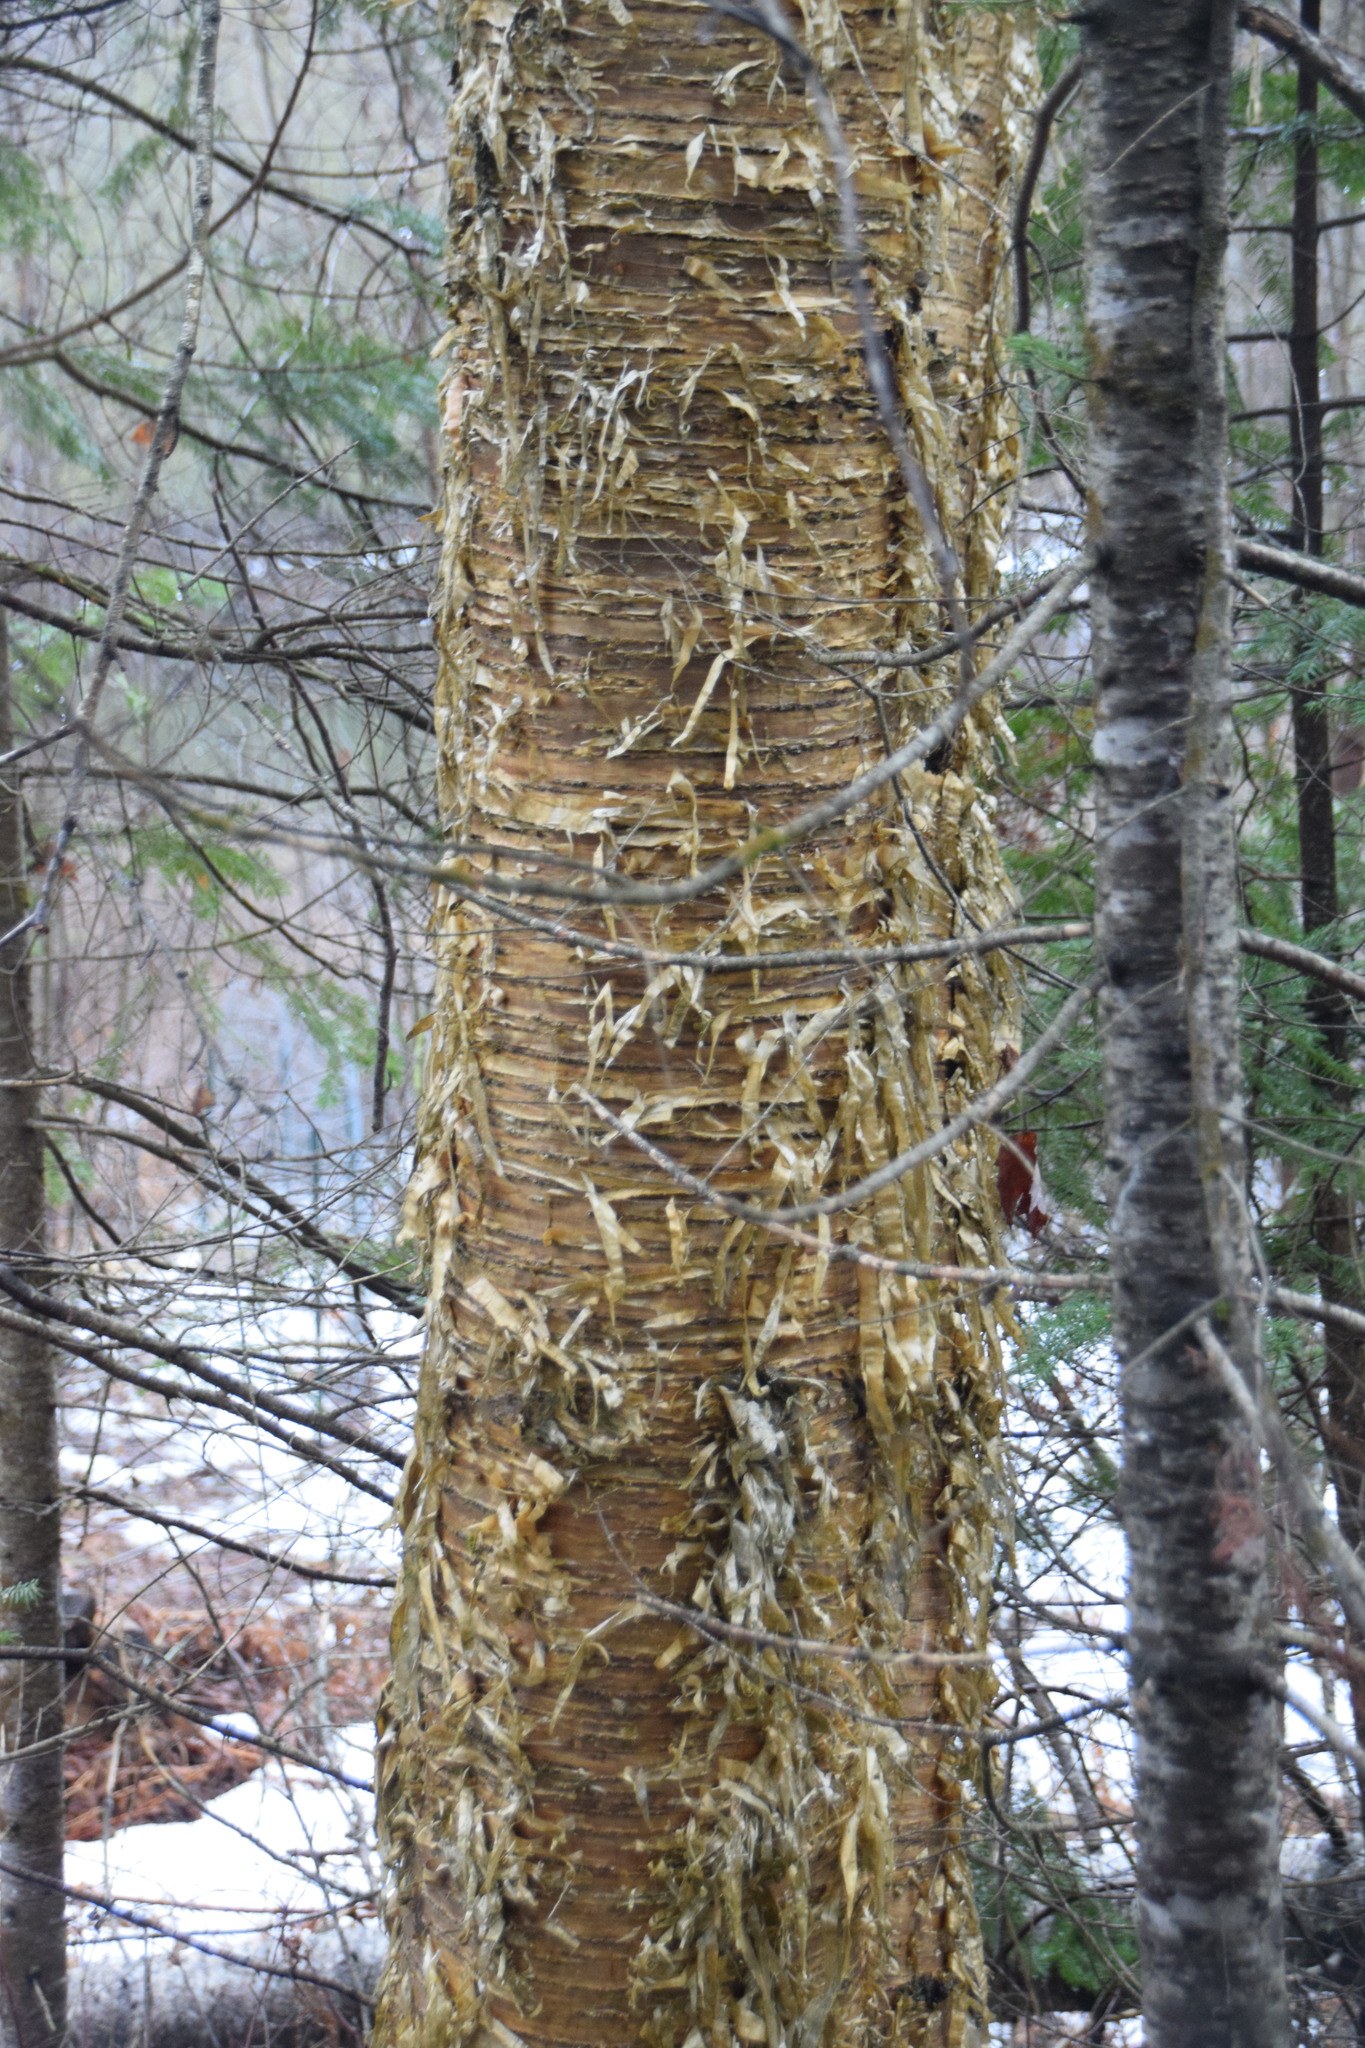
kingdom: Plantae
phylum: Tracheophyta
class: Magnoliopsida
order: Fagales
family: Betulaceae
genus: Betula
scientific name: Betula alleghaniensis
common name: Yellow birch
